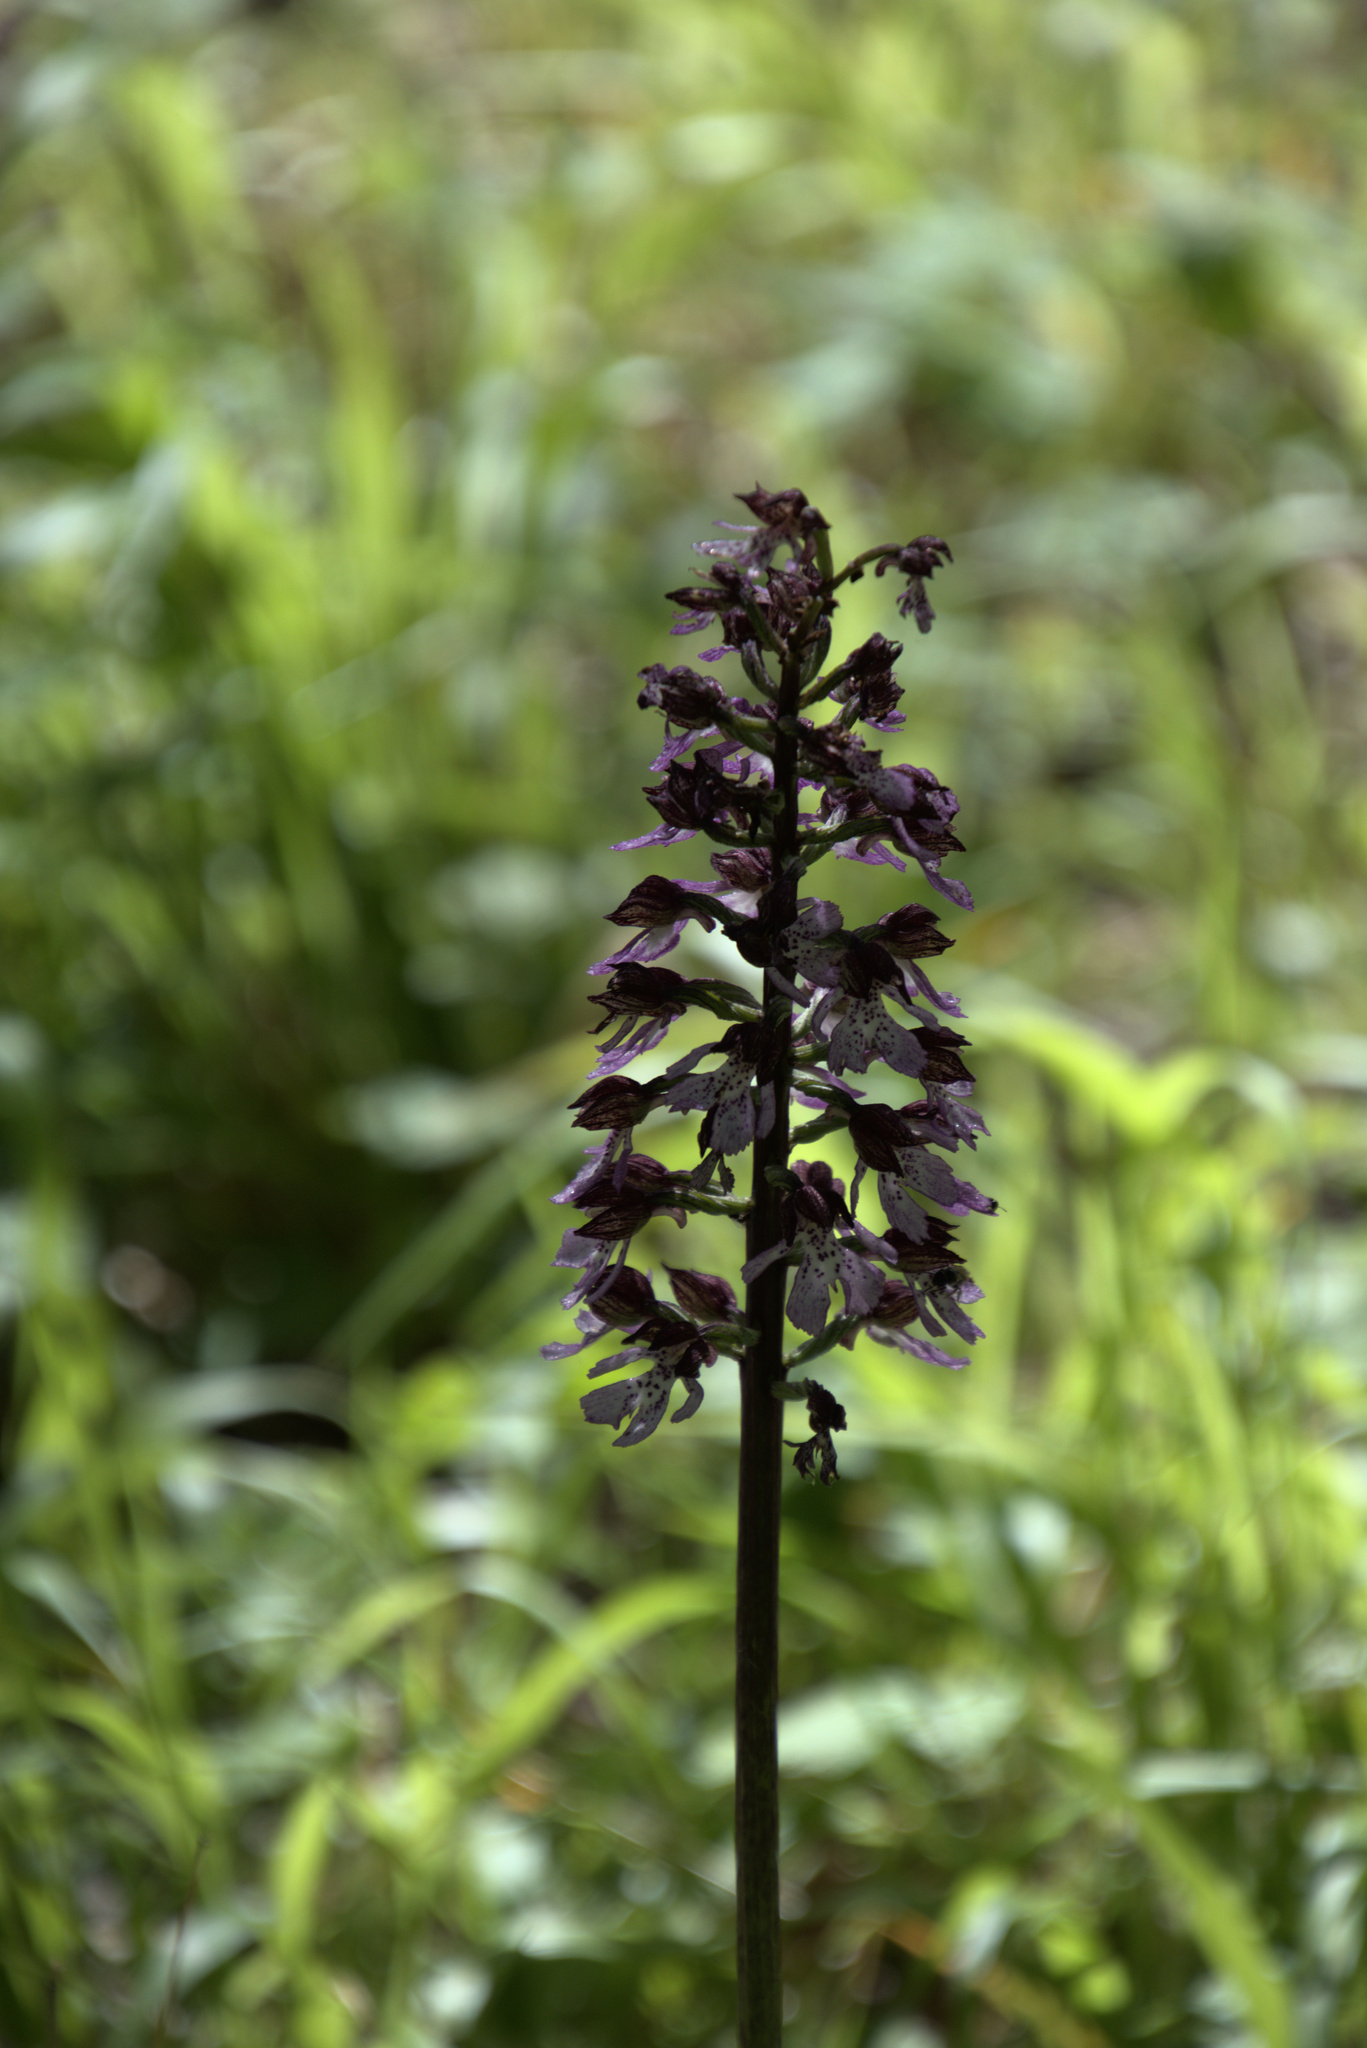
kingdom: Plantae
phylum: Tracheophyta
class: Liliopsida
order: Asparagales
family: Orchidaceae
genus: Orchis
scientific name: Orchis purpurea
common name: Lady orchid
